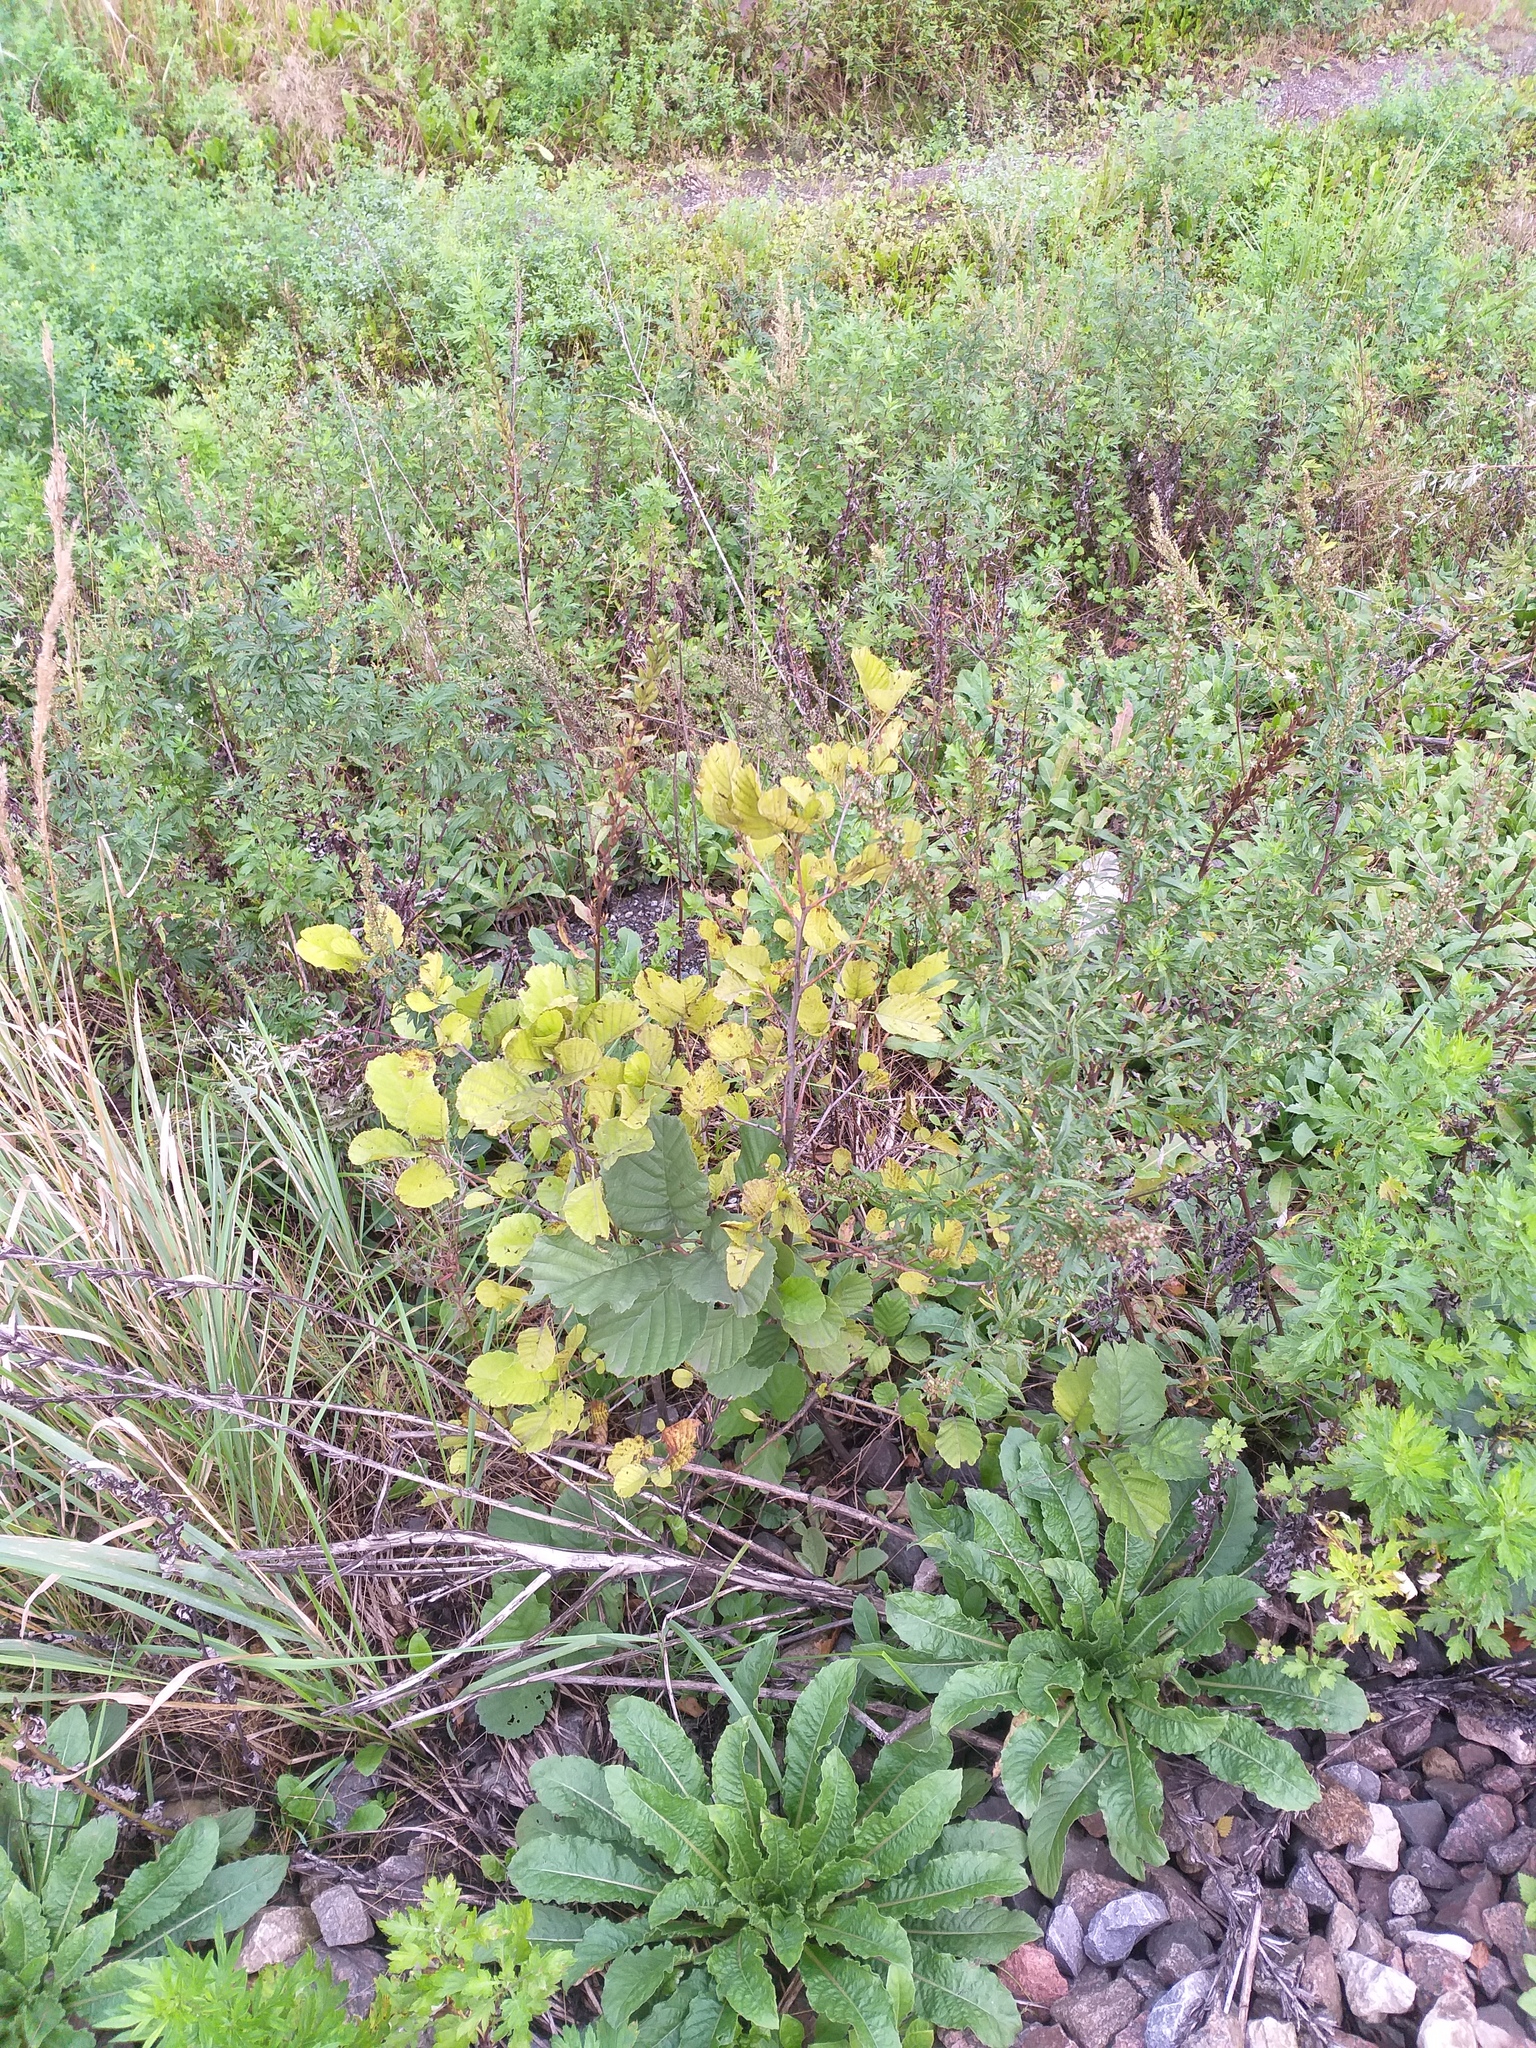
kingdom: Plantae
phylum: Tracheophyta
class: Magnoliopsida
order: Fagales
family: Betulaceae
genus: Alnus
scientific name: Alnus glutinosa
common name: Black alder
